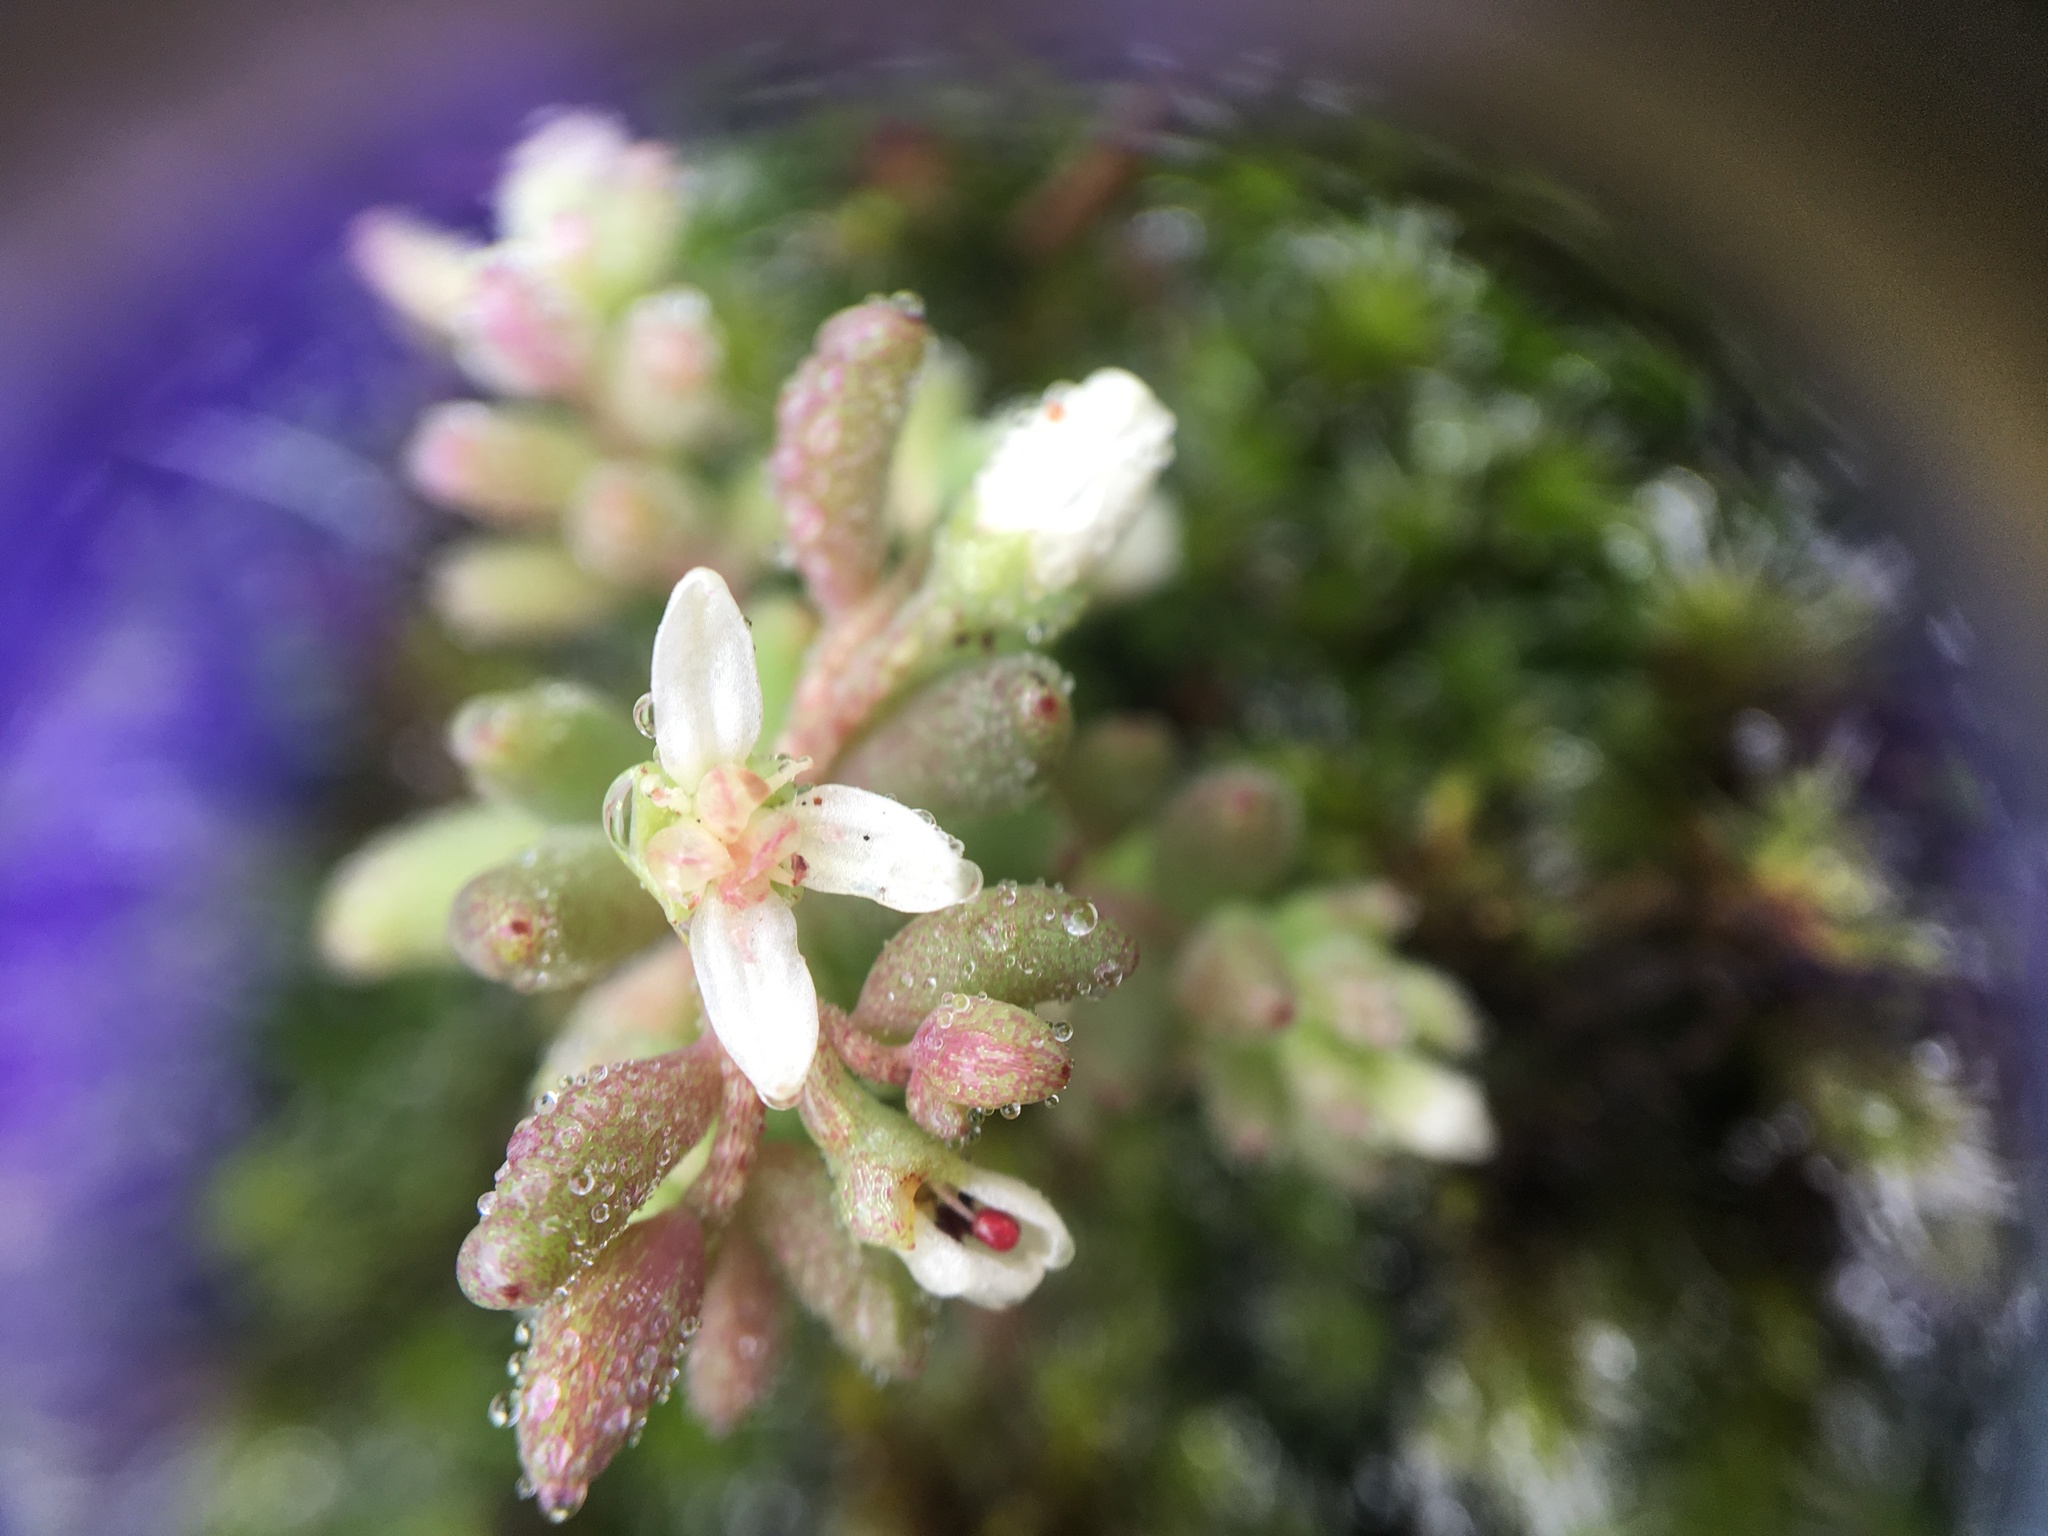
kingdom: Plantae
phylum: Tracheophyta
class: Magnoliopsida
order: Saxifragales
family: Crassulaceae
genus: Sedum
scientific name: Sedum pusillum
